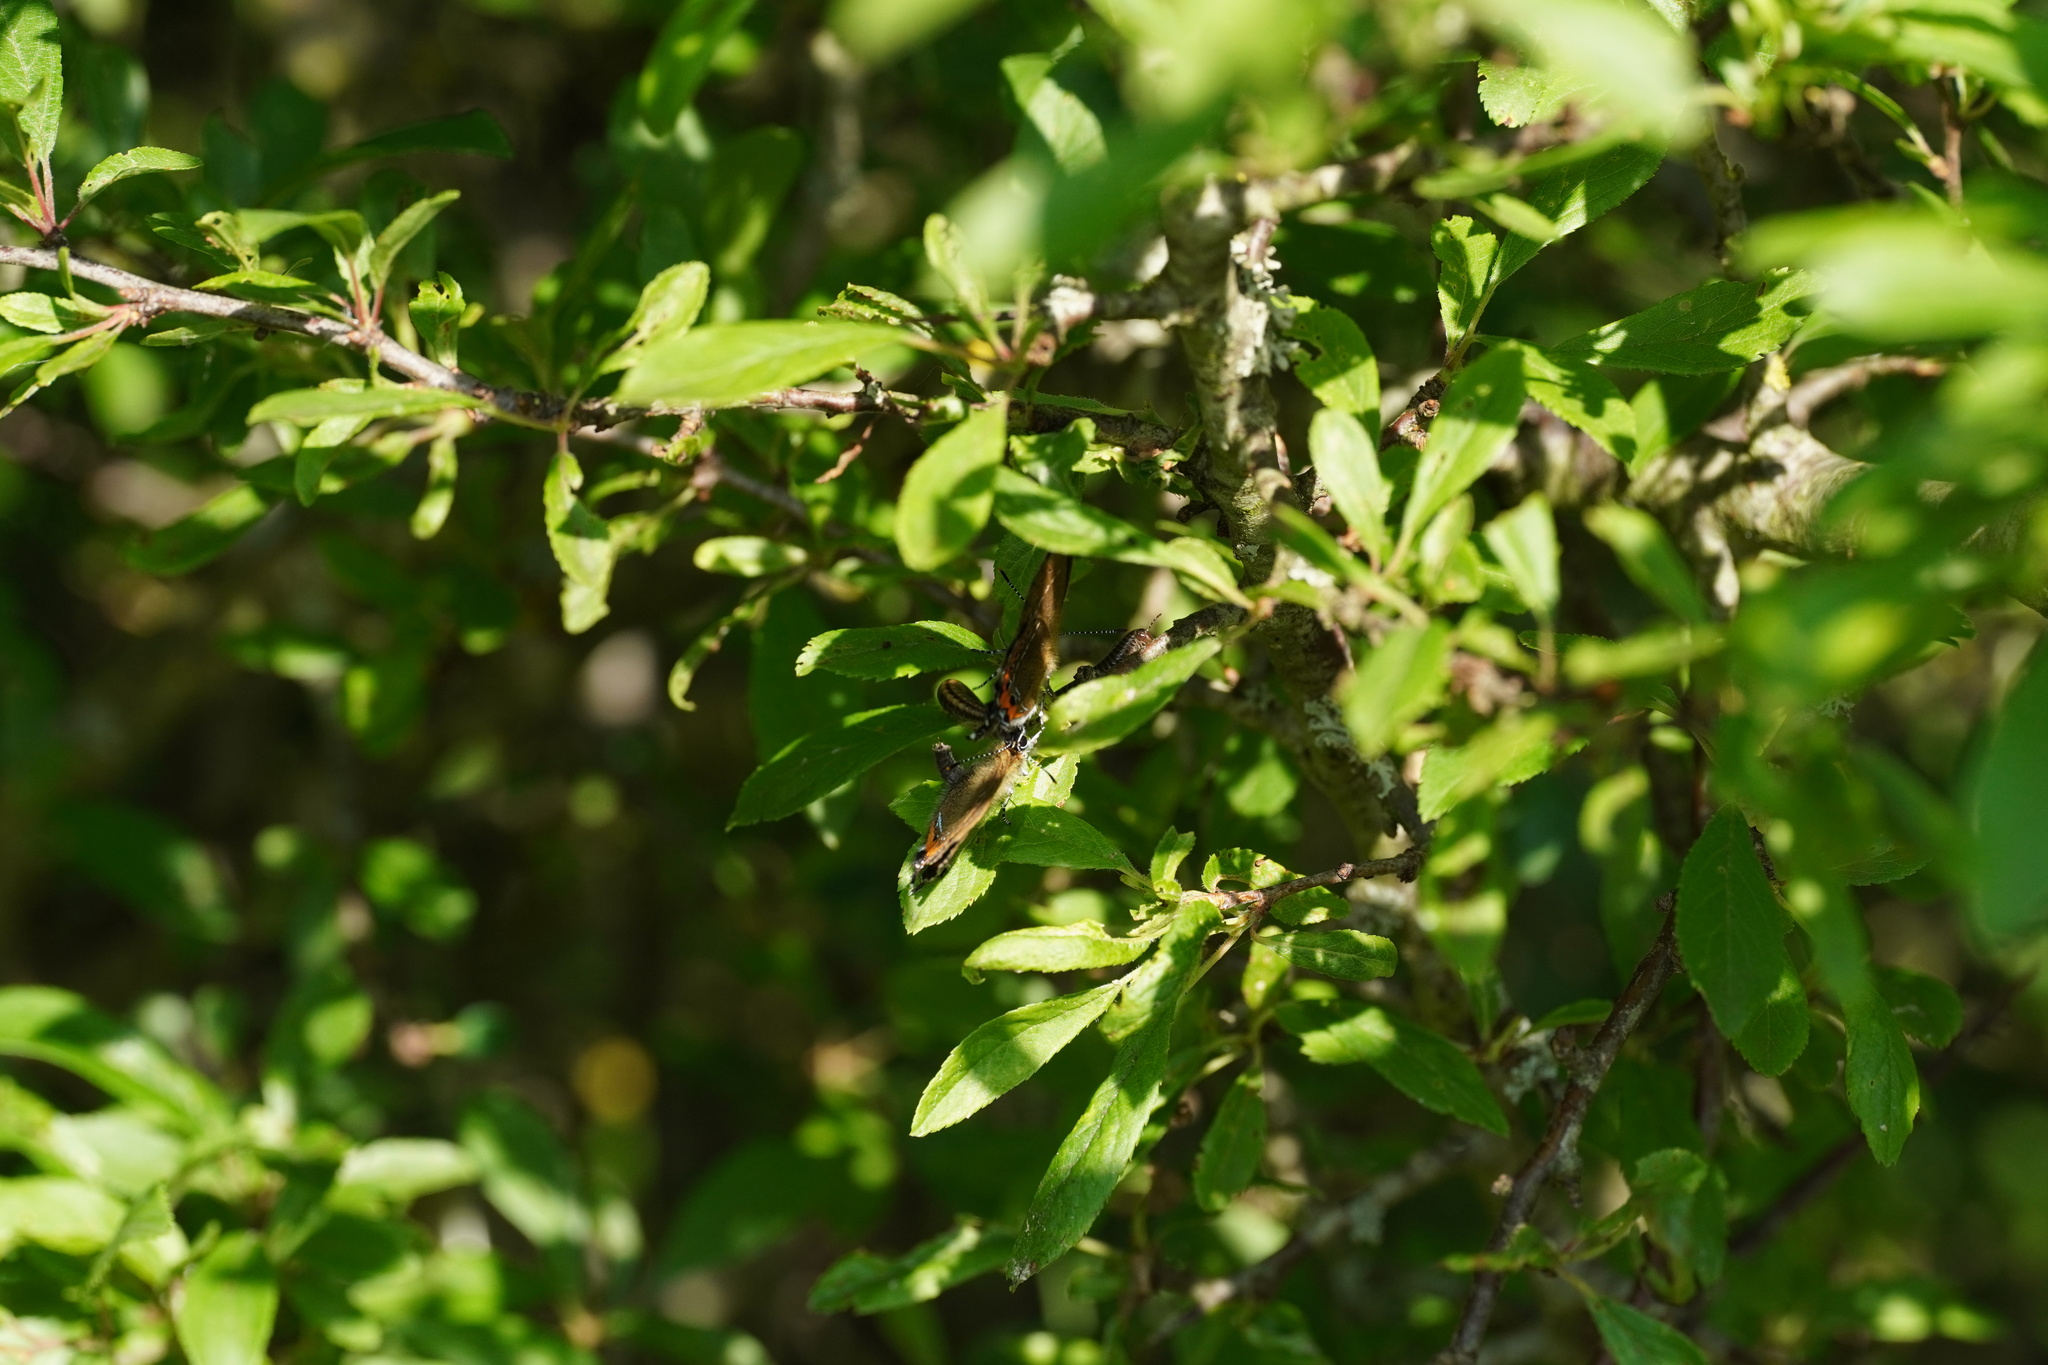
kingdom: Animalia
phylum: Arthropoda
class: Insecta
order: Lepidoptera
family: Lycaenidae
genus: Fixsenia
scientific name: Fixsenia pruni
